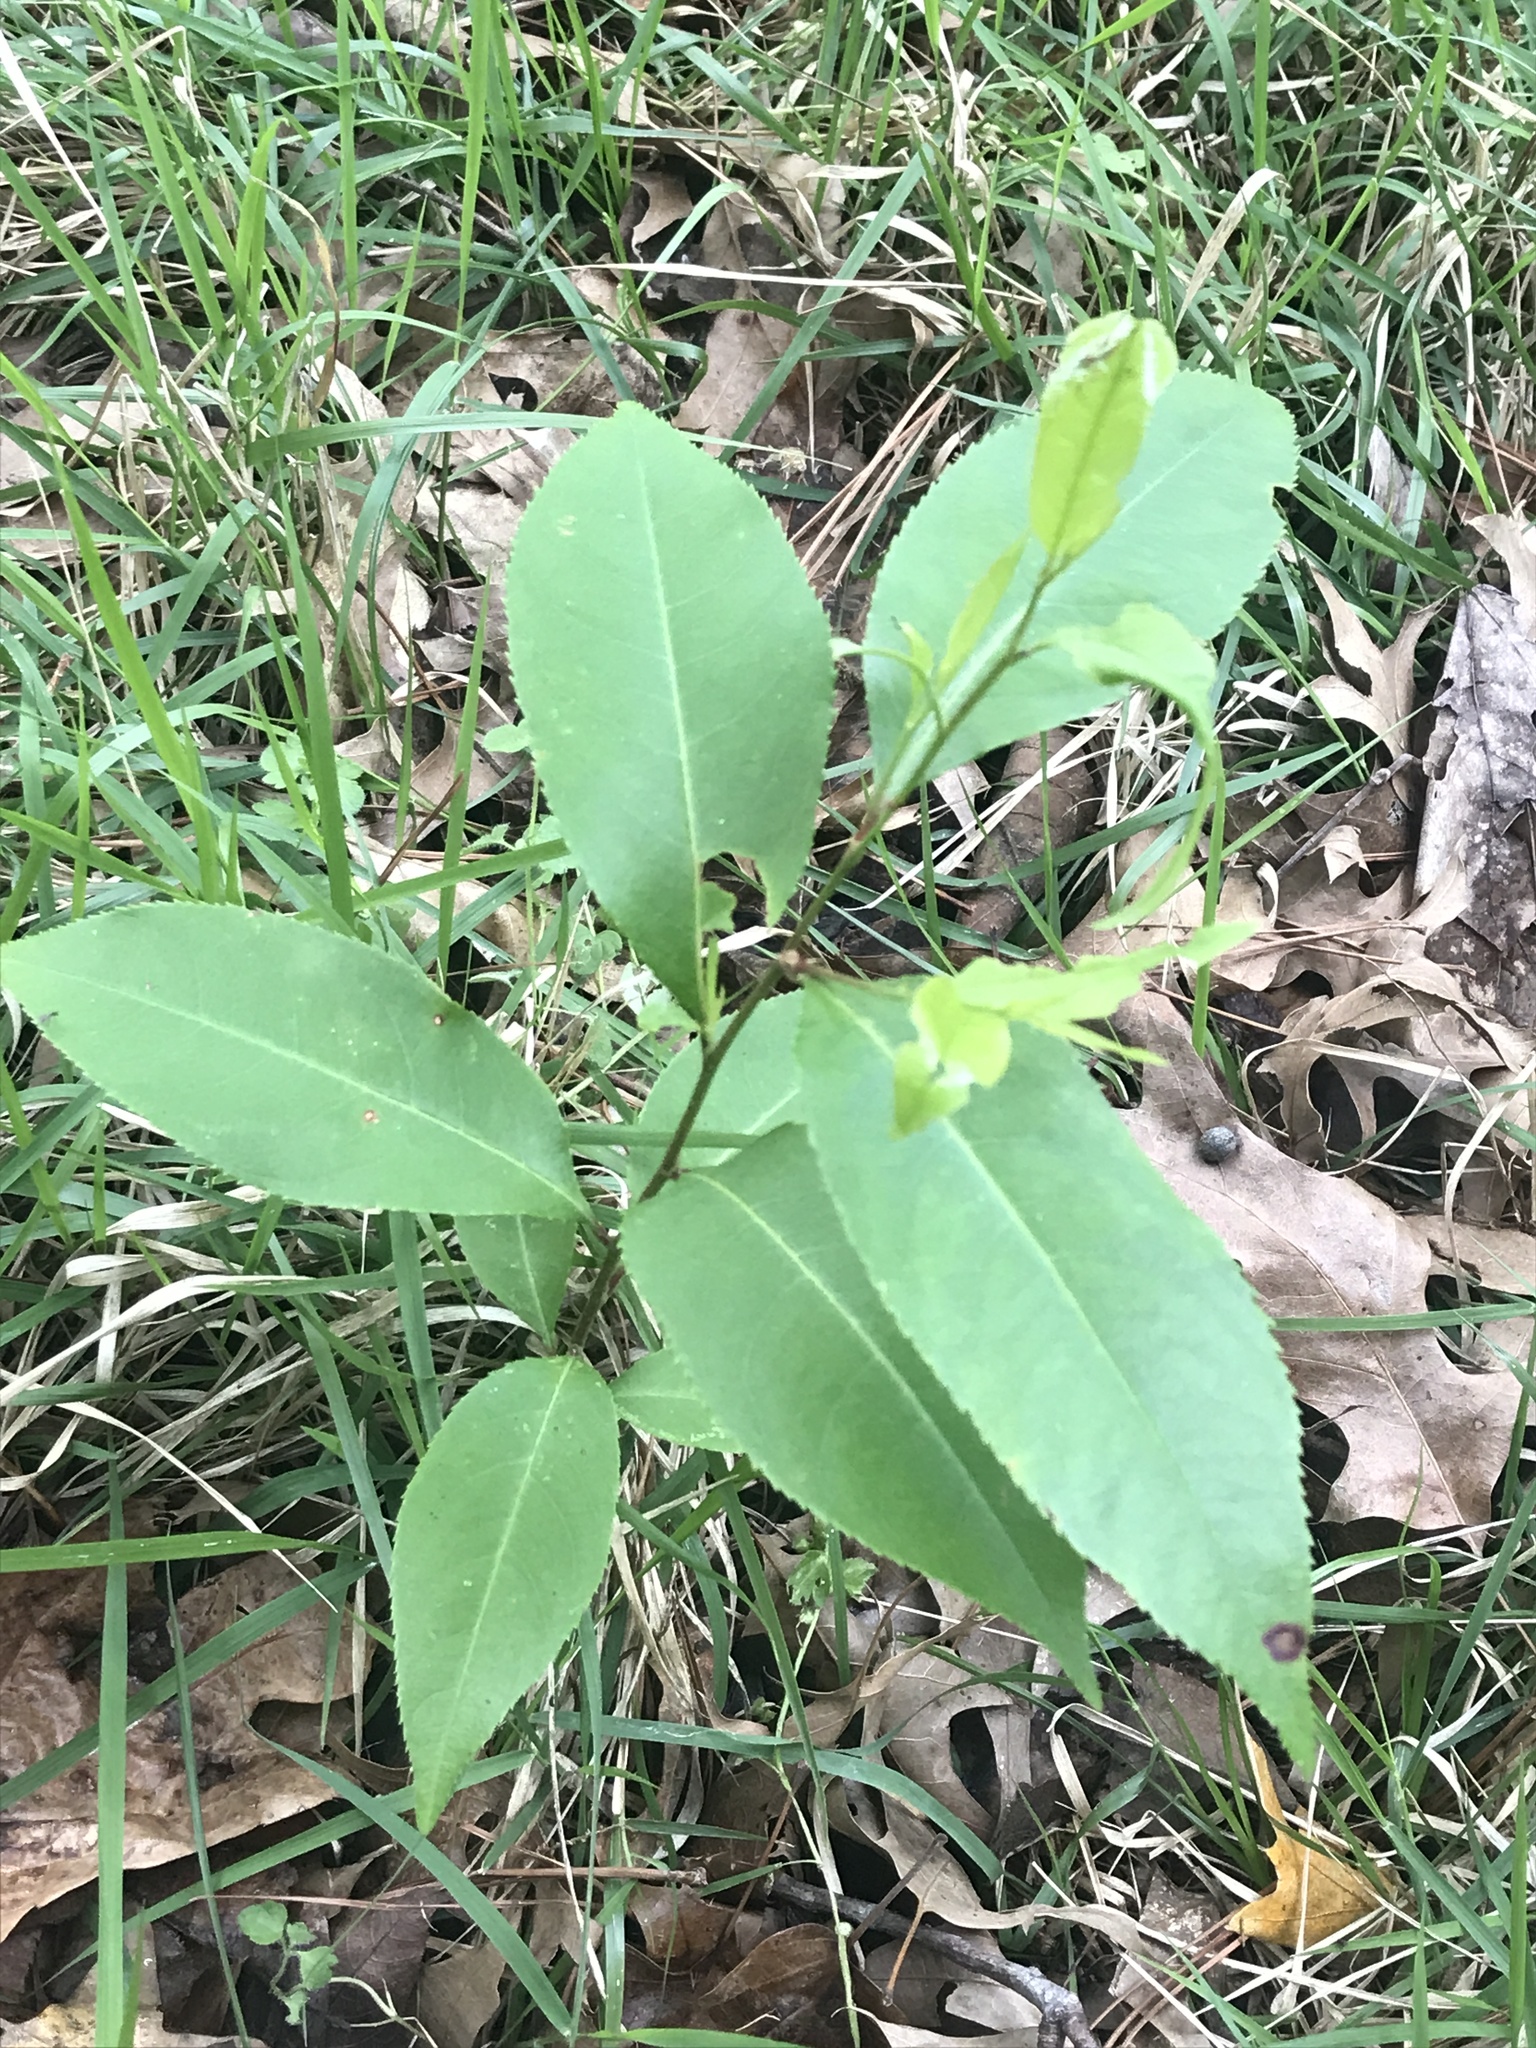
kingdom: Plantae
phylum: Tracheophyta
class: Magnoliopsida
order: Rosales
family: Rosaceae
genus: Prunus
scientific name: Prunus serotina
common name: Black cherry
